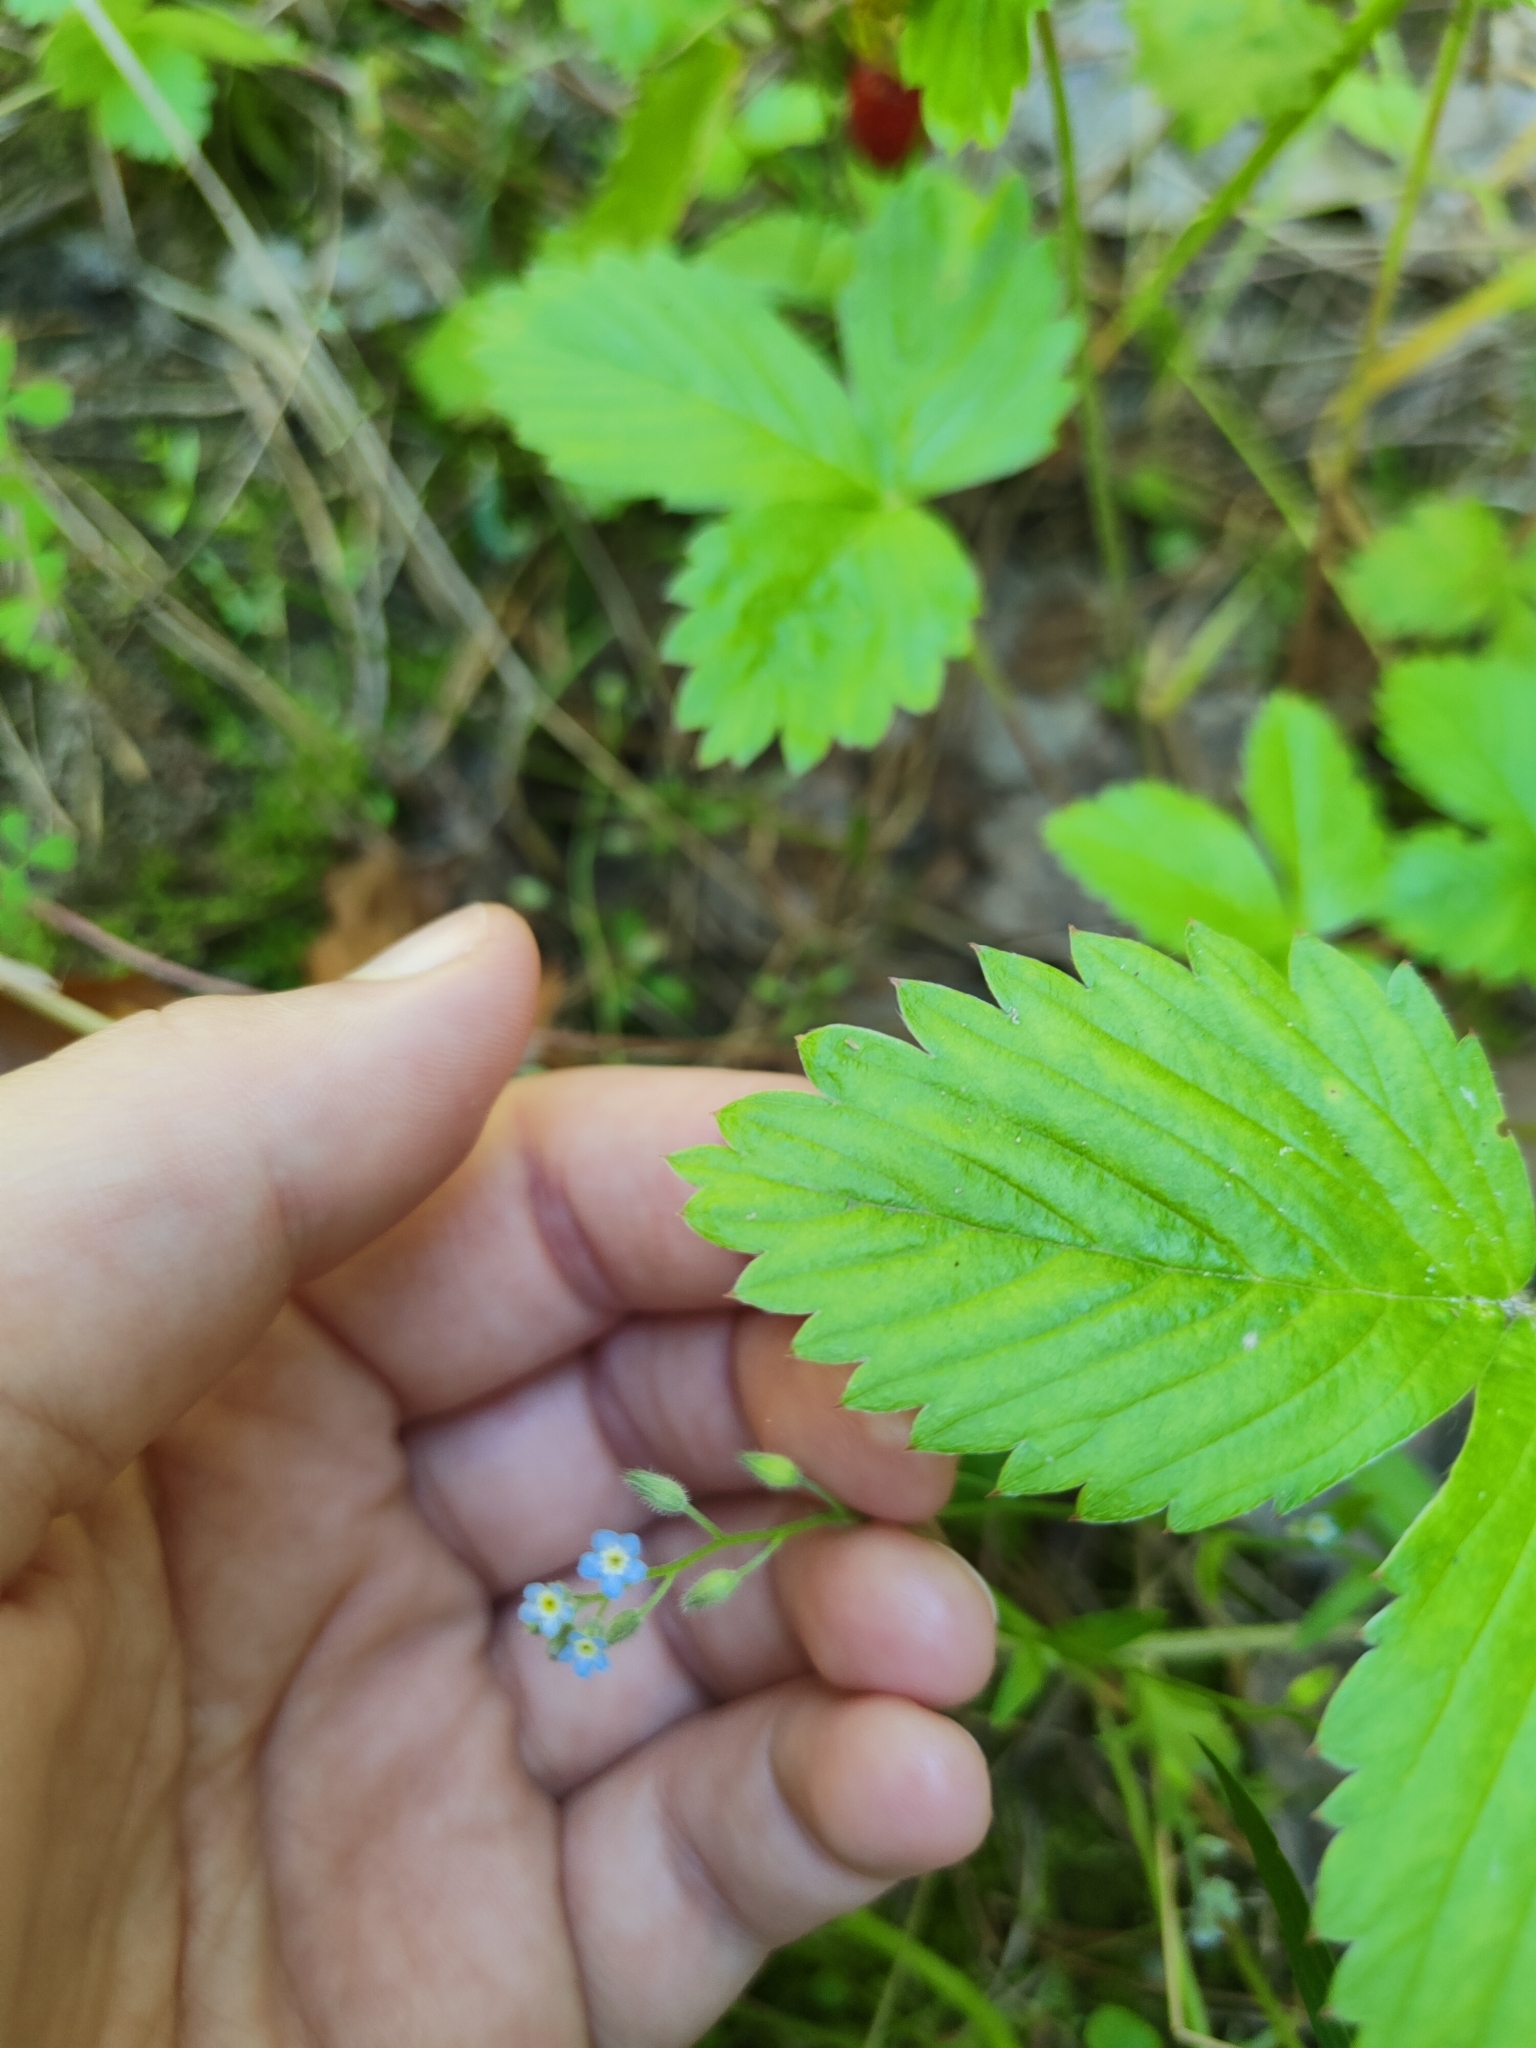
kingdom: Plantae
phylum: Tracheophyta
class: Magnoliopsida
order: Boraginales
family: Boraginaceae
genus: Myosotis
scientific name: Myosotis arvensis
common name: Field forget-me-not
